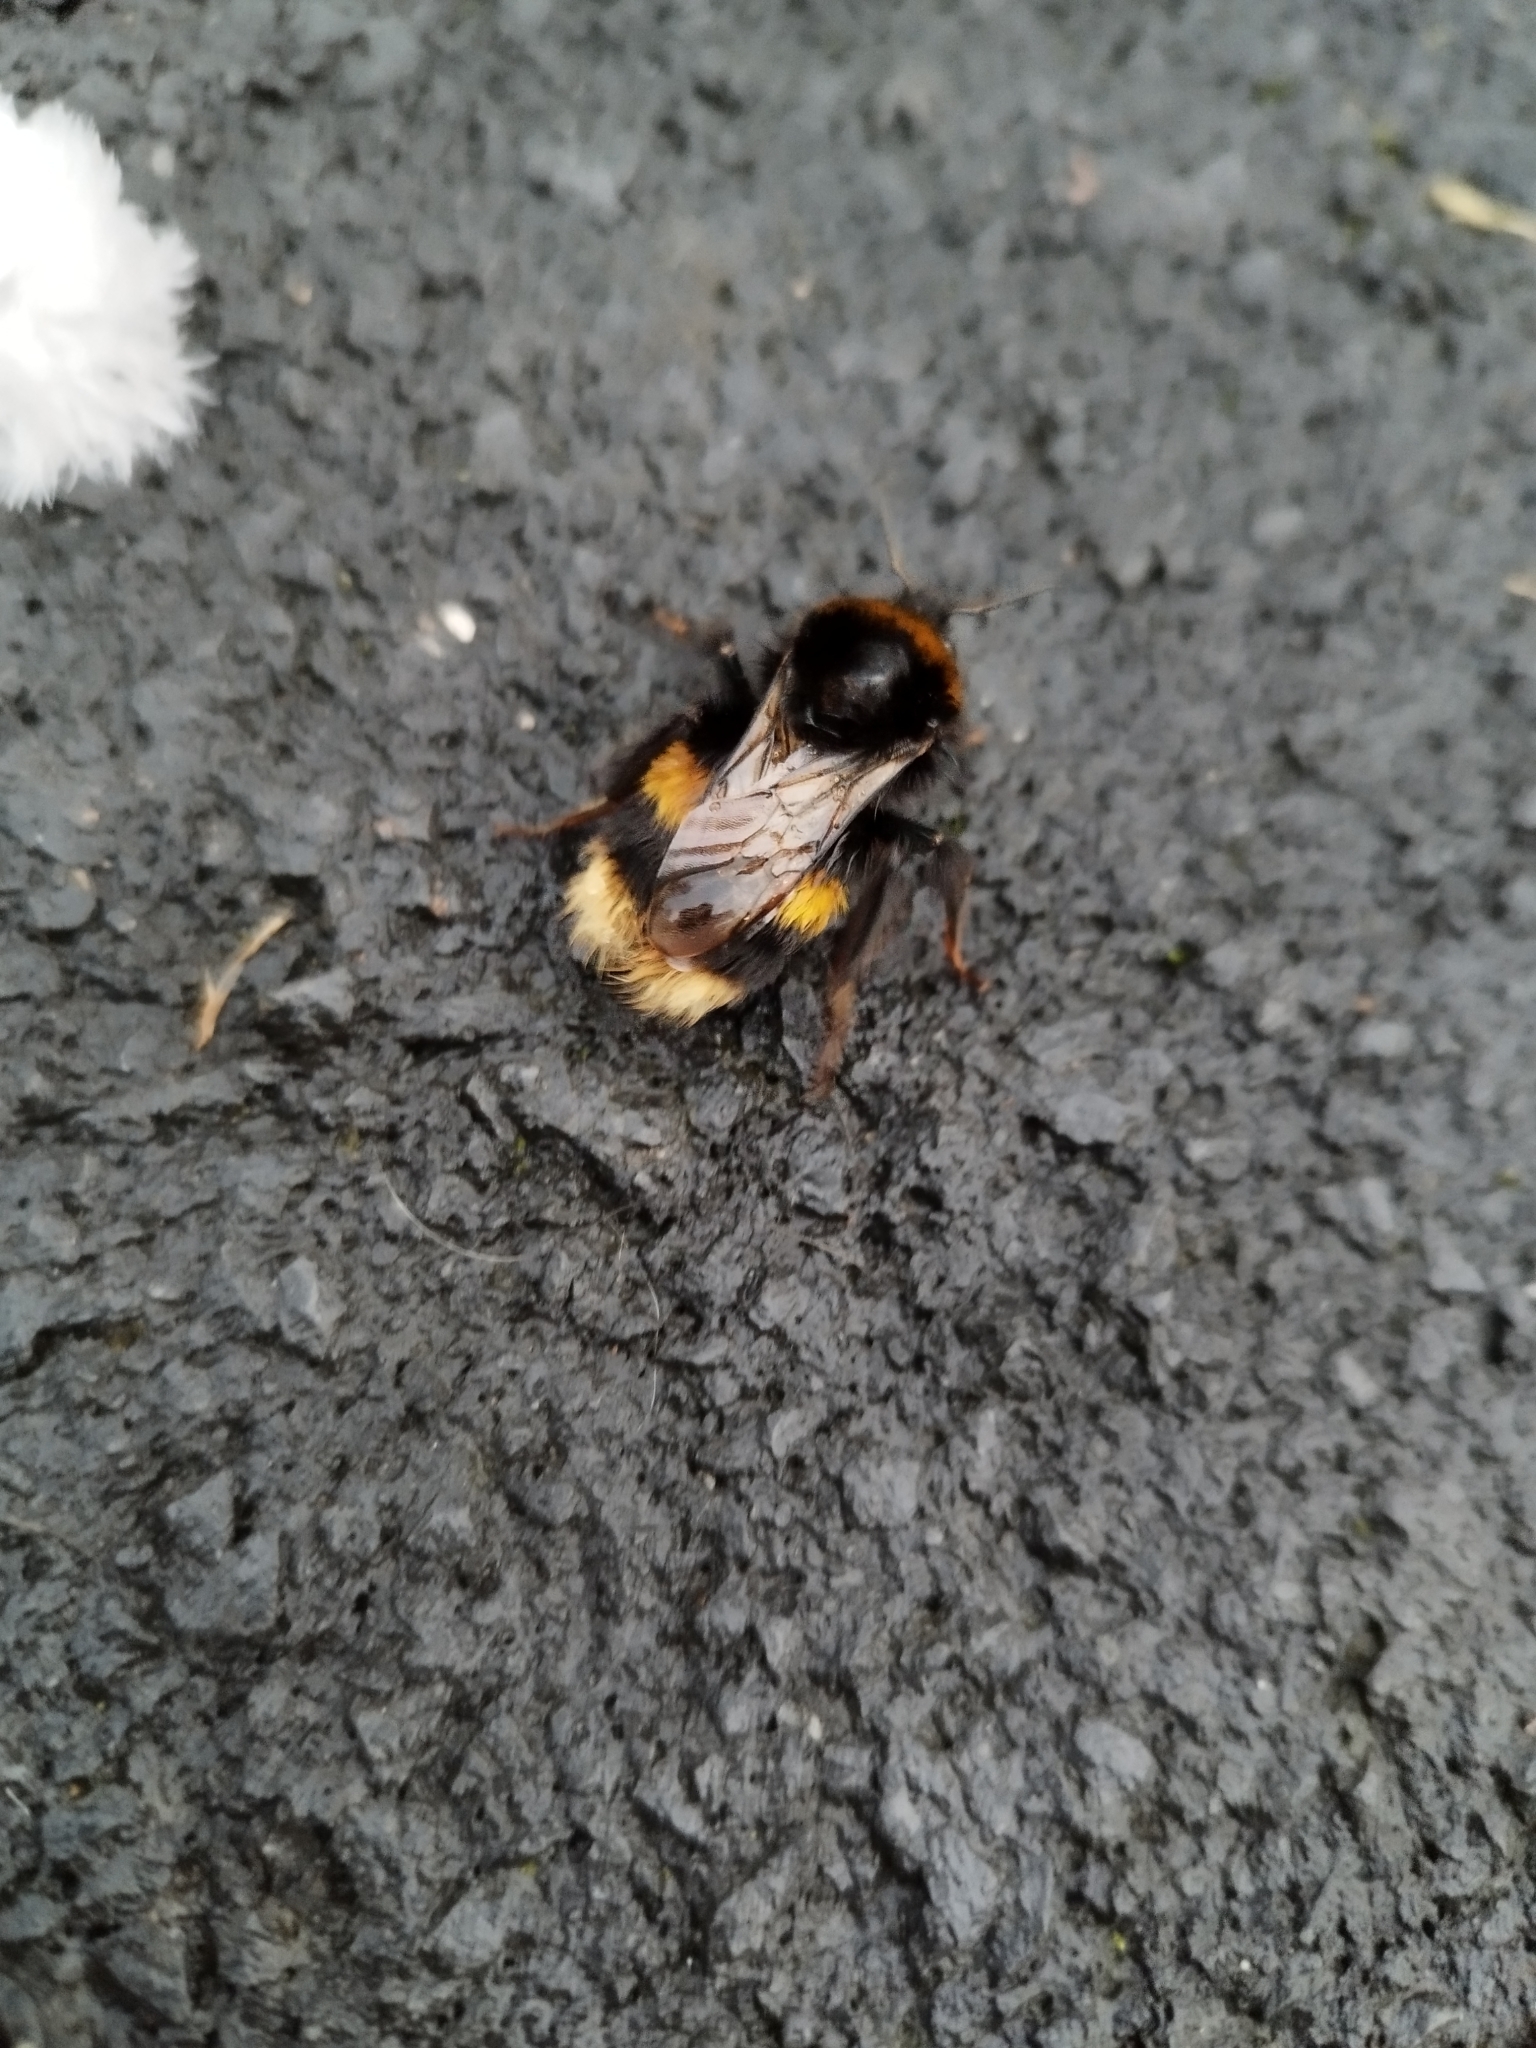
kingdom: Animalia
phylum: Arthropoda
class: Insecta
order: Hymenoptera
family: Apidae
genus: Bombus
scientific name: Bombus terrestris
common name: Buff-tailed bumblebee
